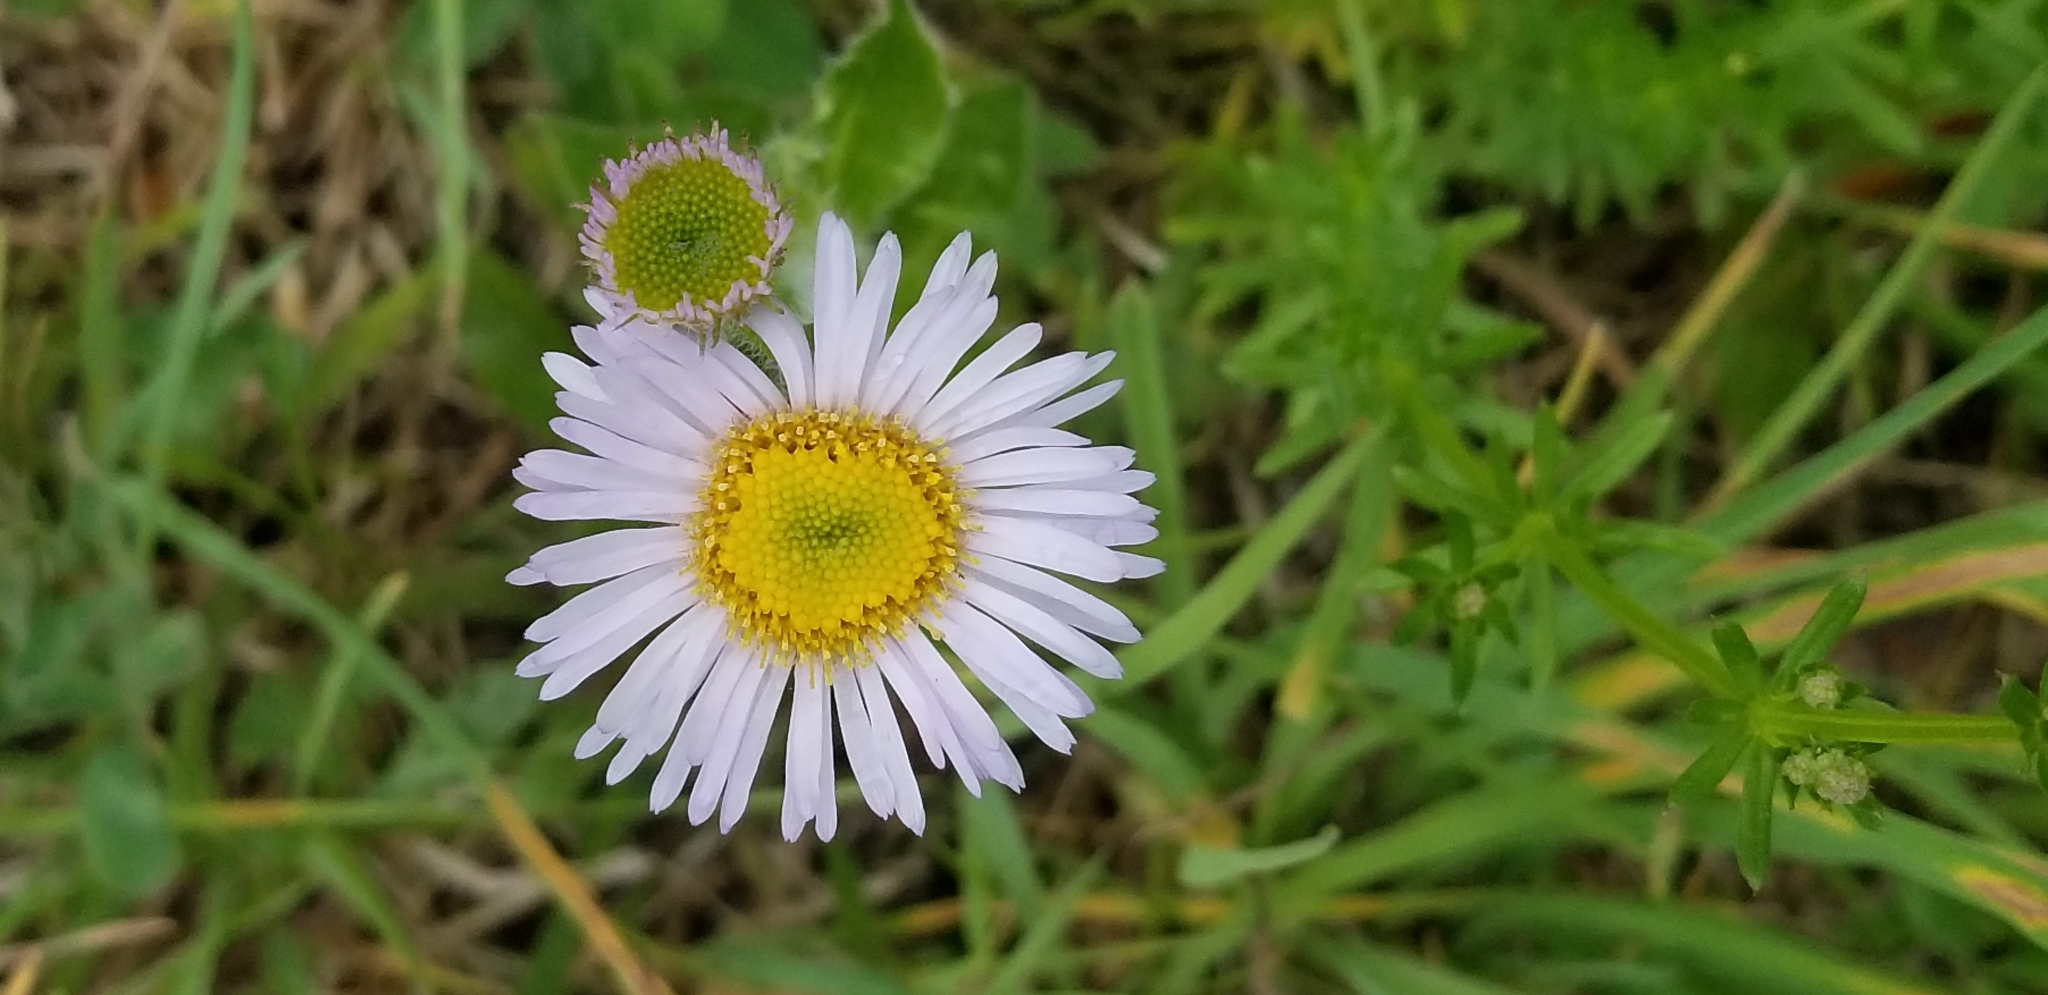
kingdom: Plantae
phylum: Tracheophyta
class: Magnoliopsida
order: Asterales
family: Asteraceae
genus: Erigeron
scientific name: Erigeron pulchellus
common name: Hairy fleabane
